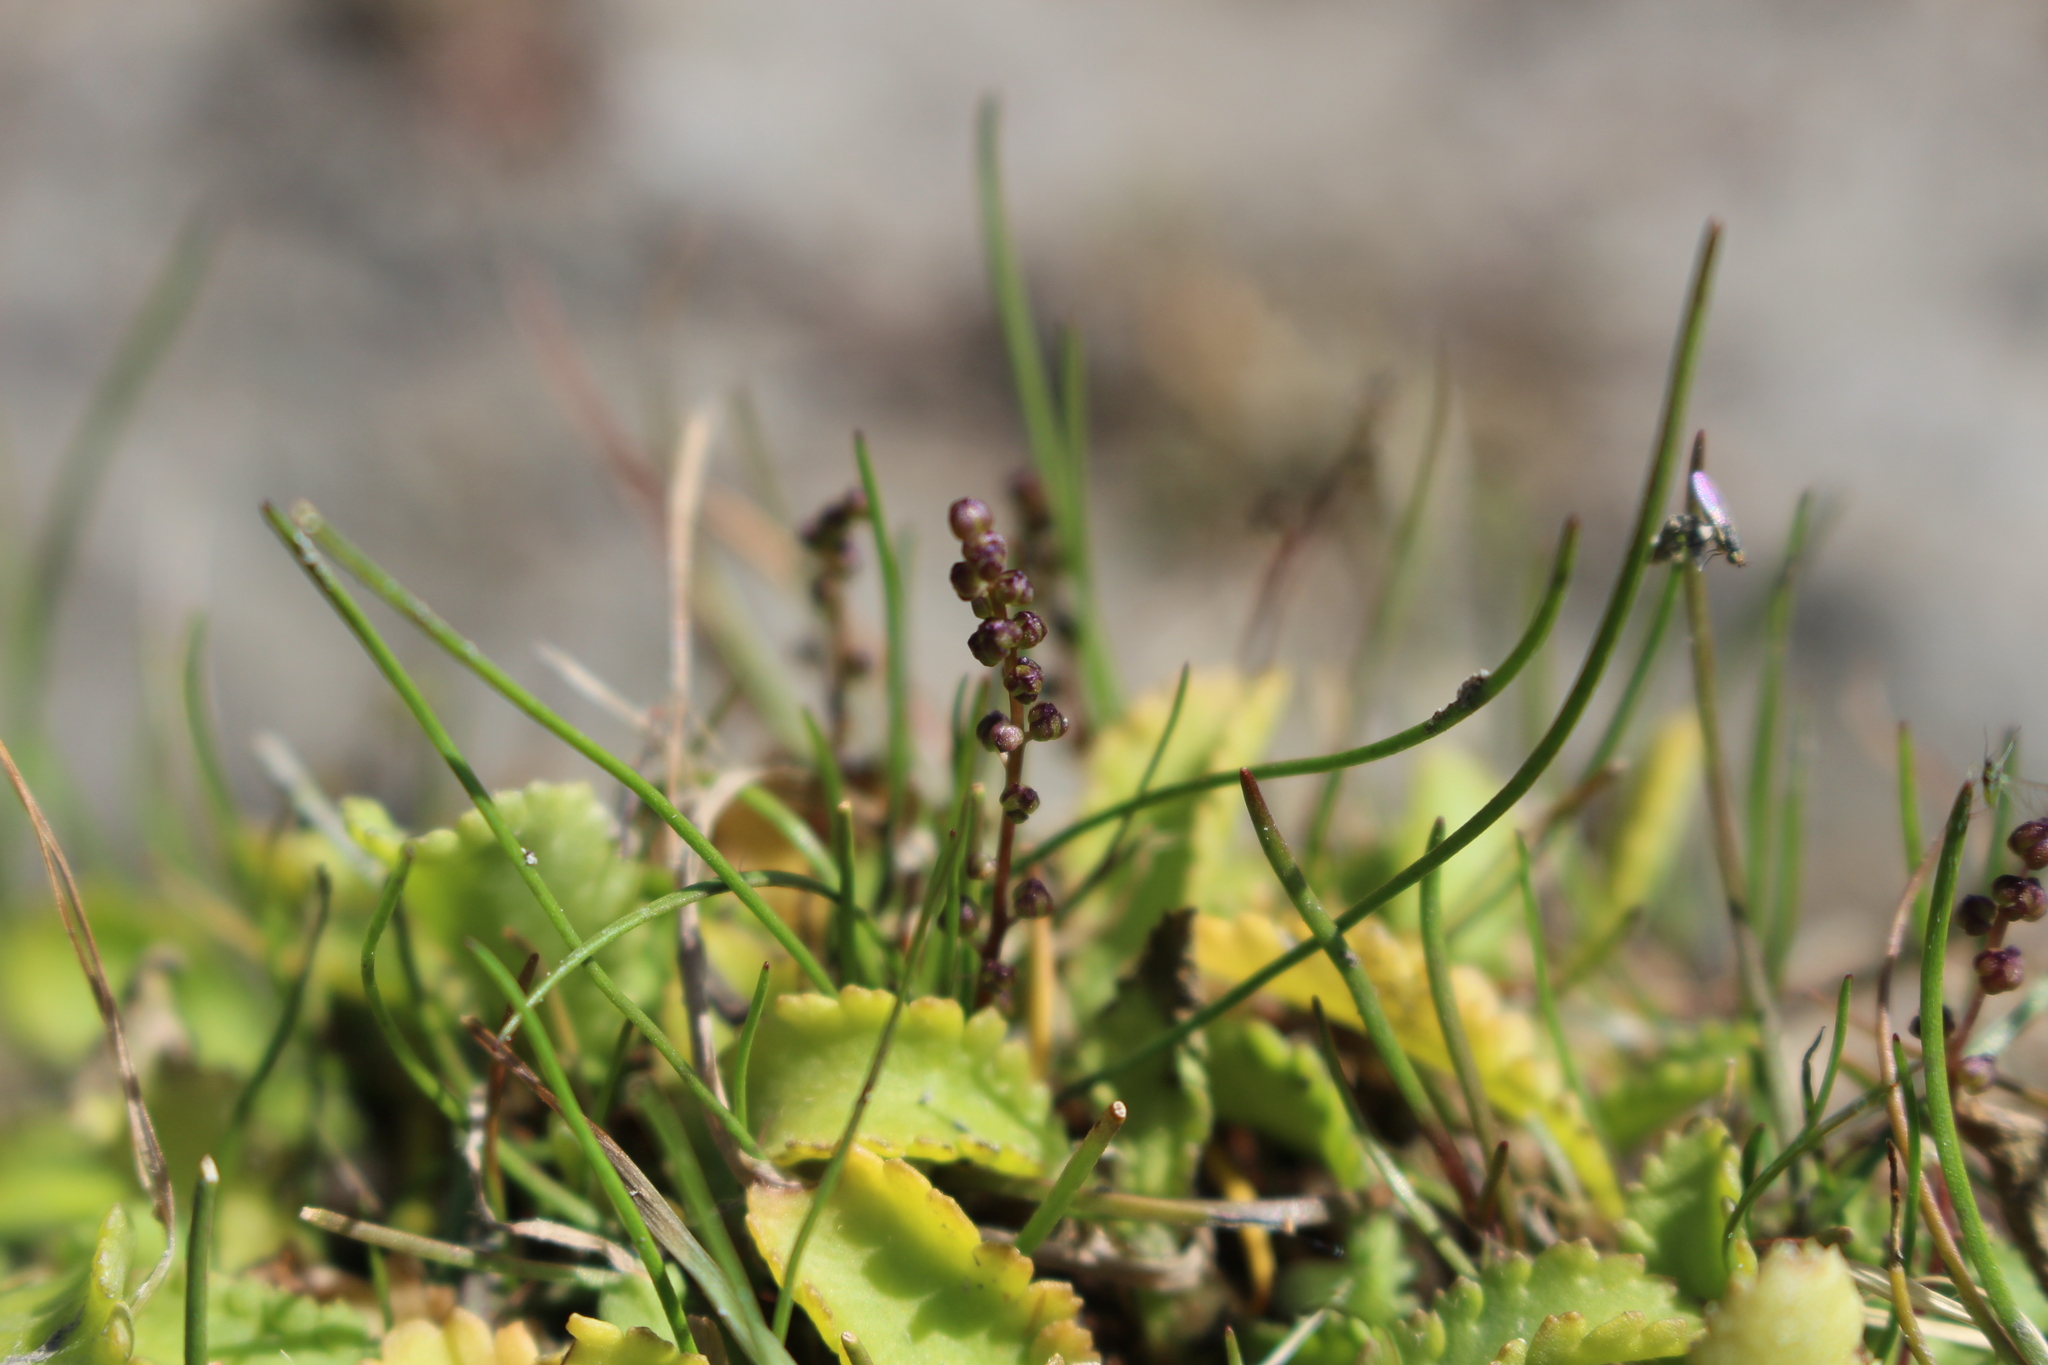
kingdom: Plantae
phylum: Tracheophyta
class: Liliopsida
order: Alismatales
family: Juncaginaceae
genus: Triglochin
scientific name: Triglochin striata
